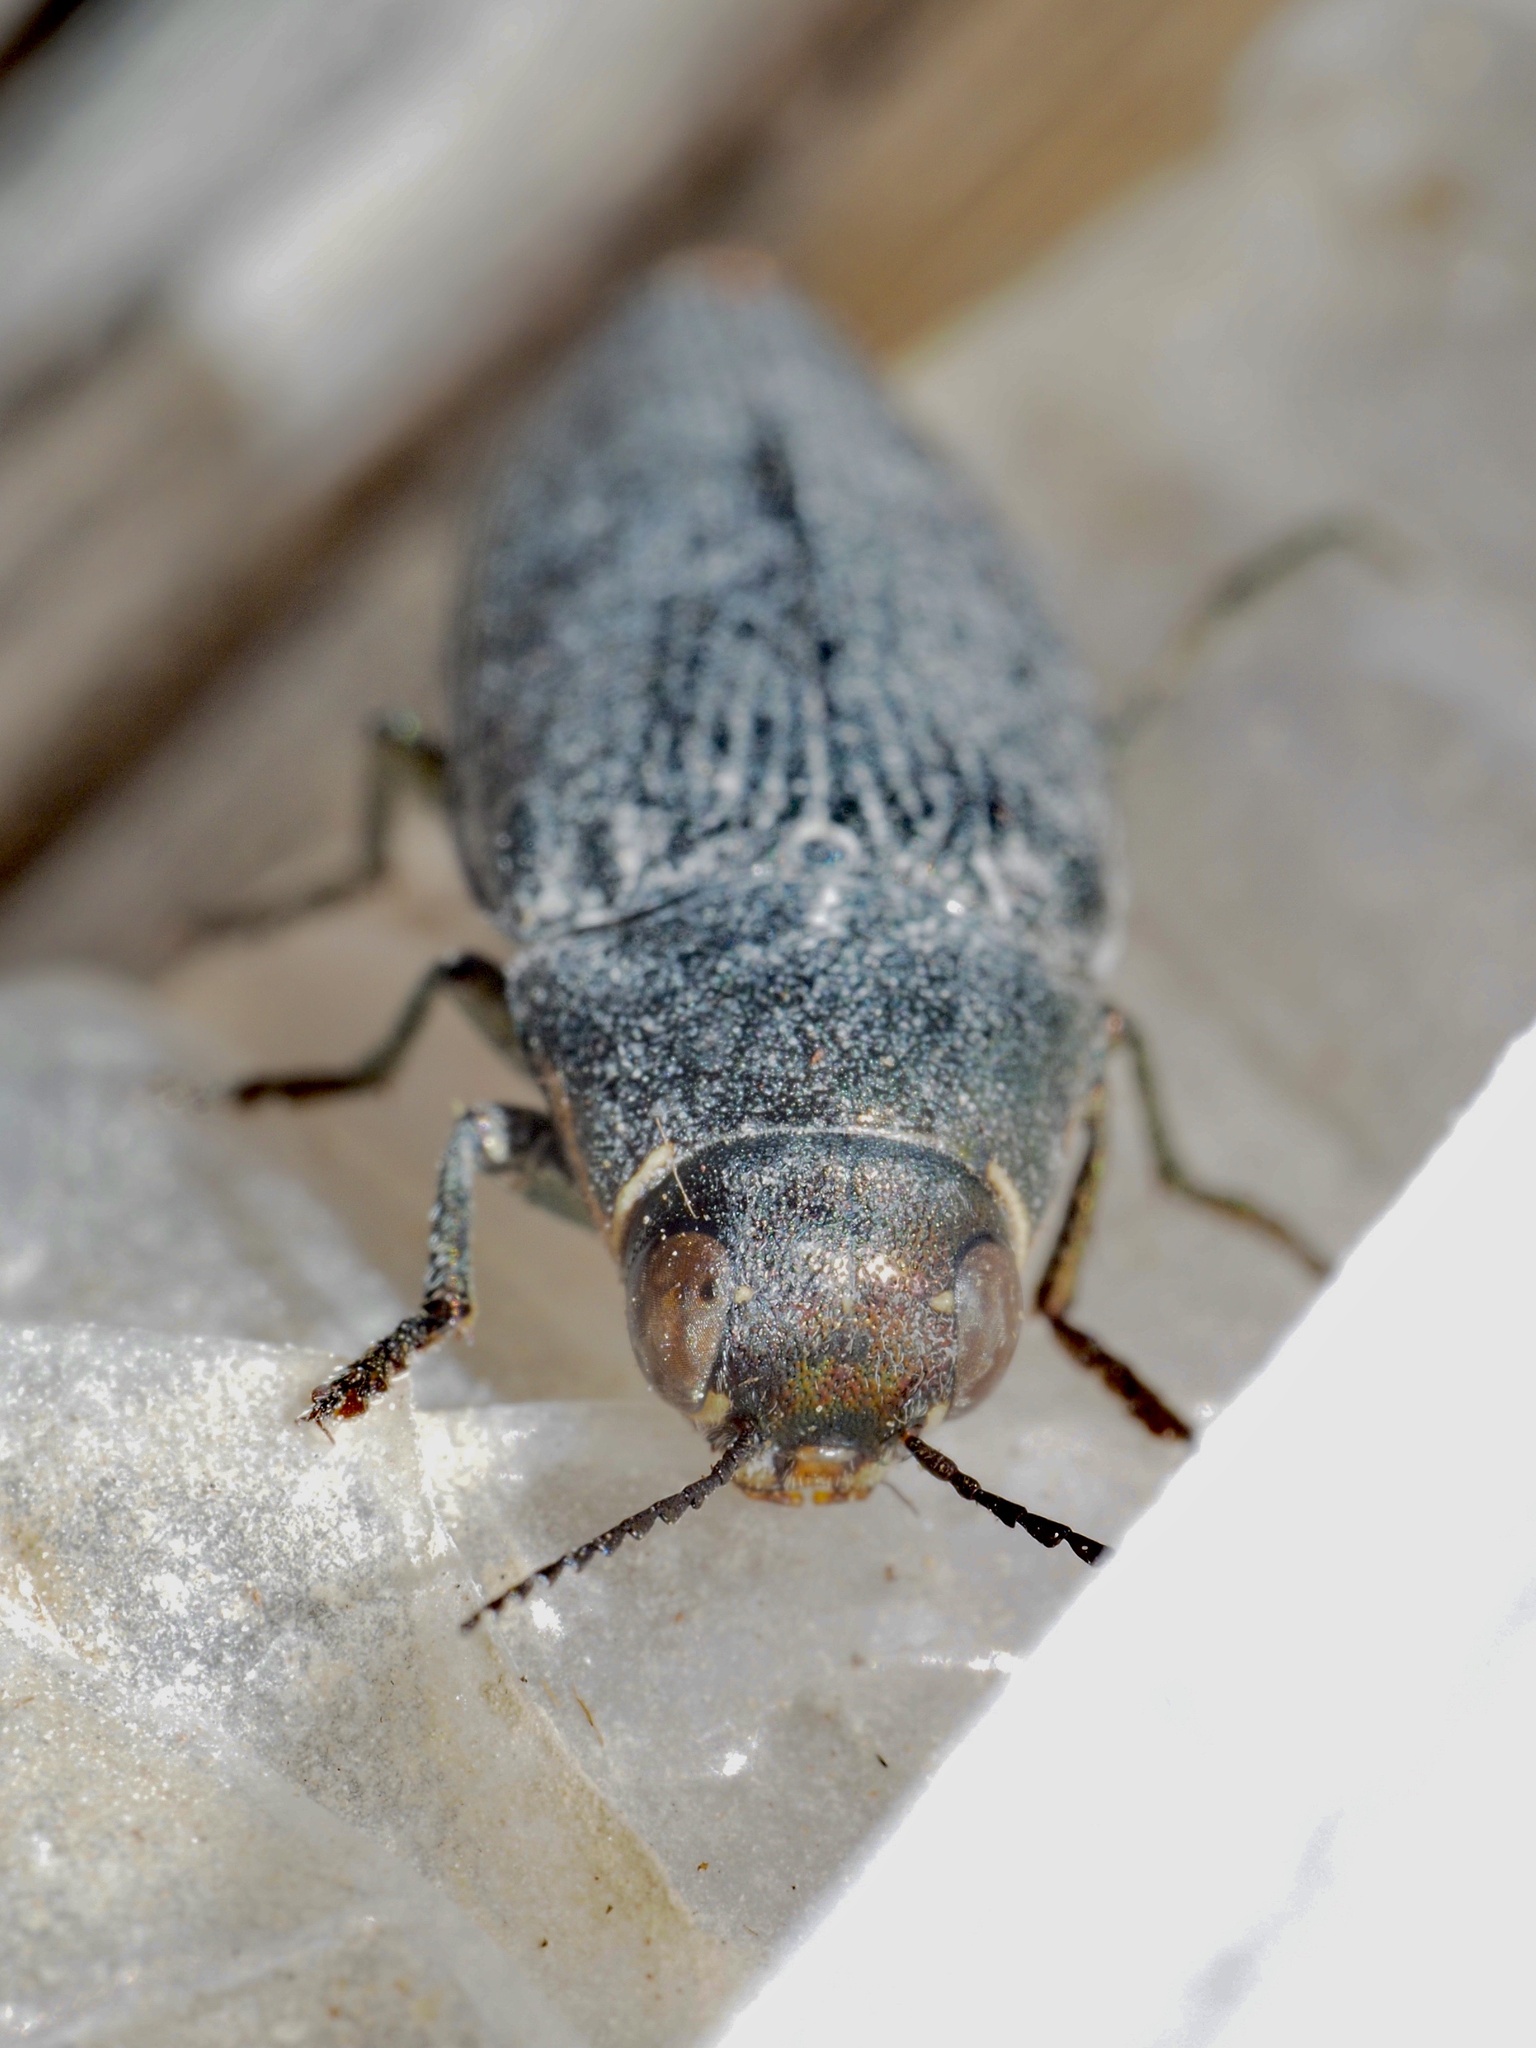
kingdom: Animalia
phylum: Arthropoda
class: Insecta
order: Coleoptera
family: Buprestidae
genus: Buprestis
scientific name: Buprestis dalmatina
